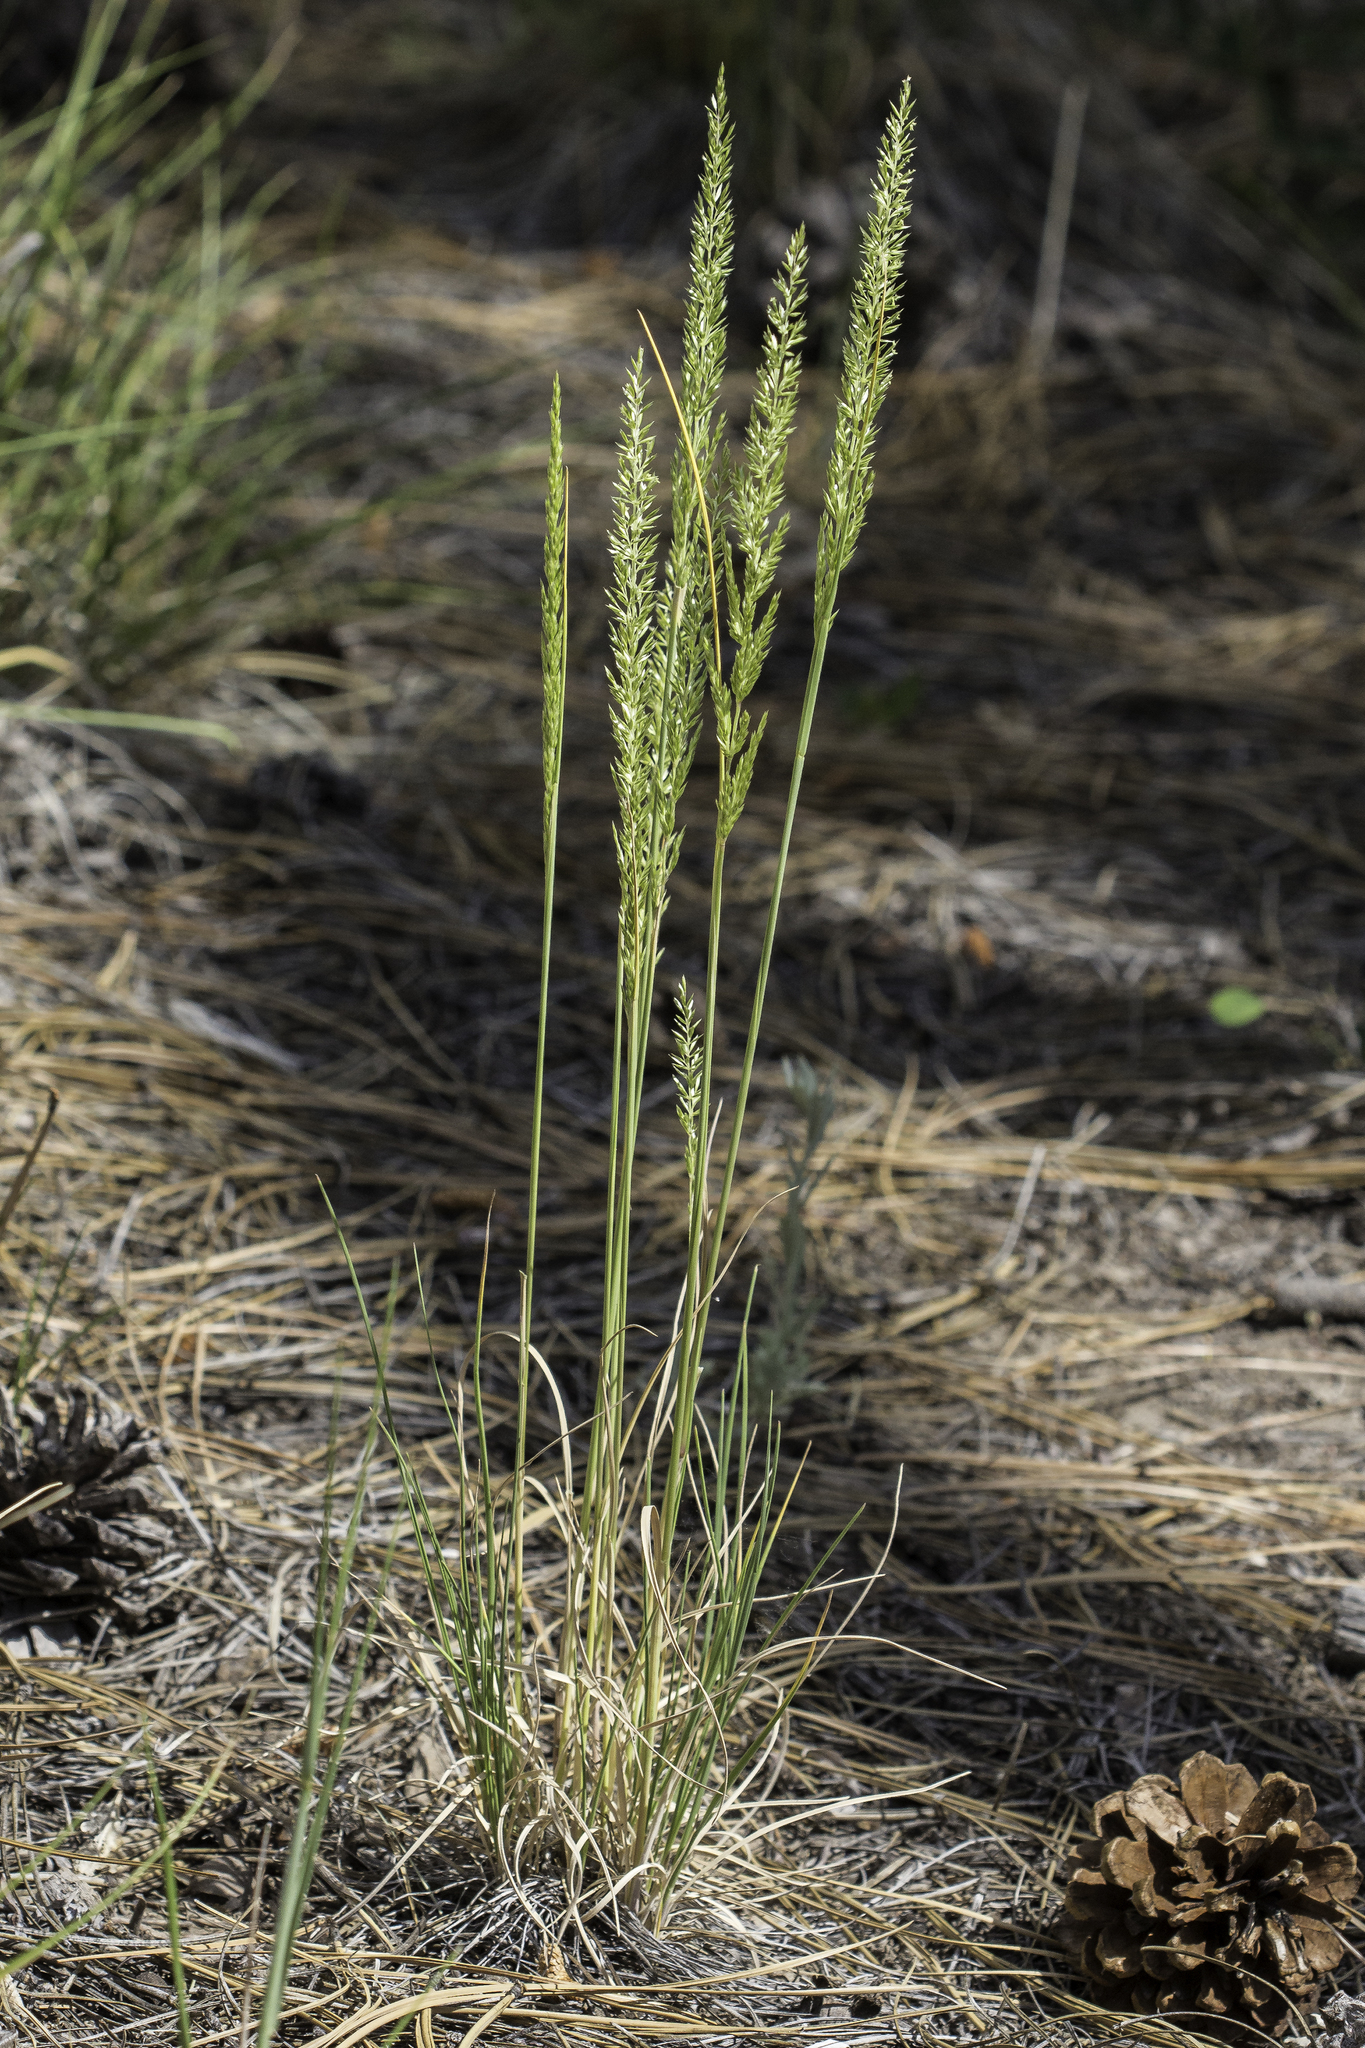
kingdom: Plantae
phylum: Tracheophyta
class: Liliopsida
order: Poales
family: Poaceae
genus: Koeleria
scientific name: Koeleria macrantha
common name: Crested hair-grass
